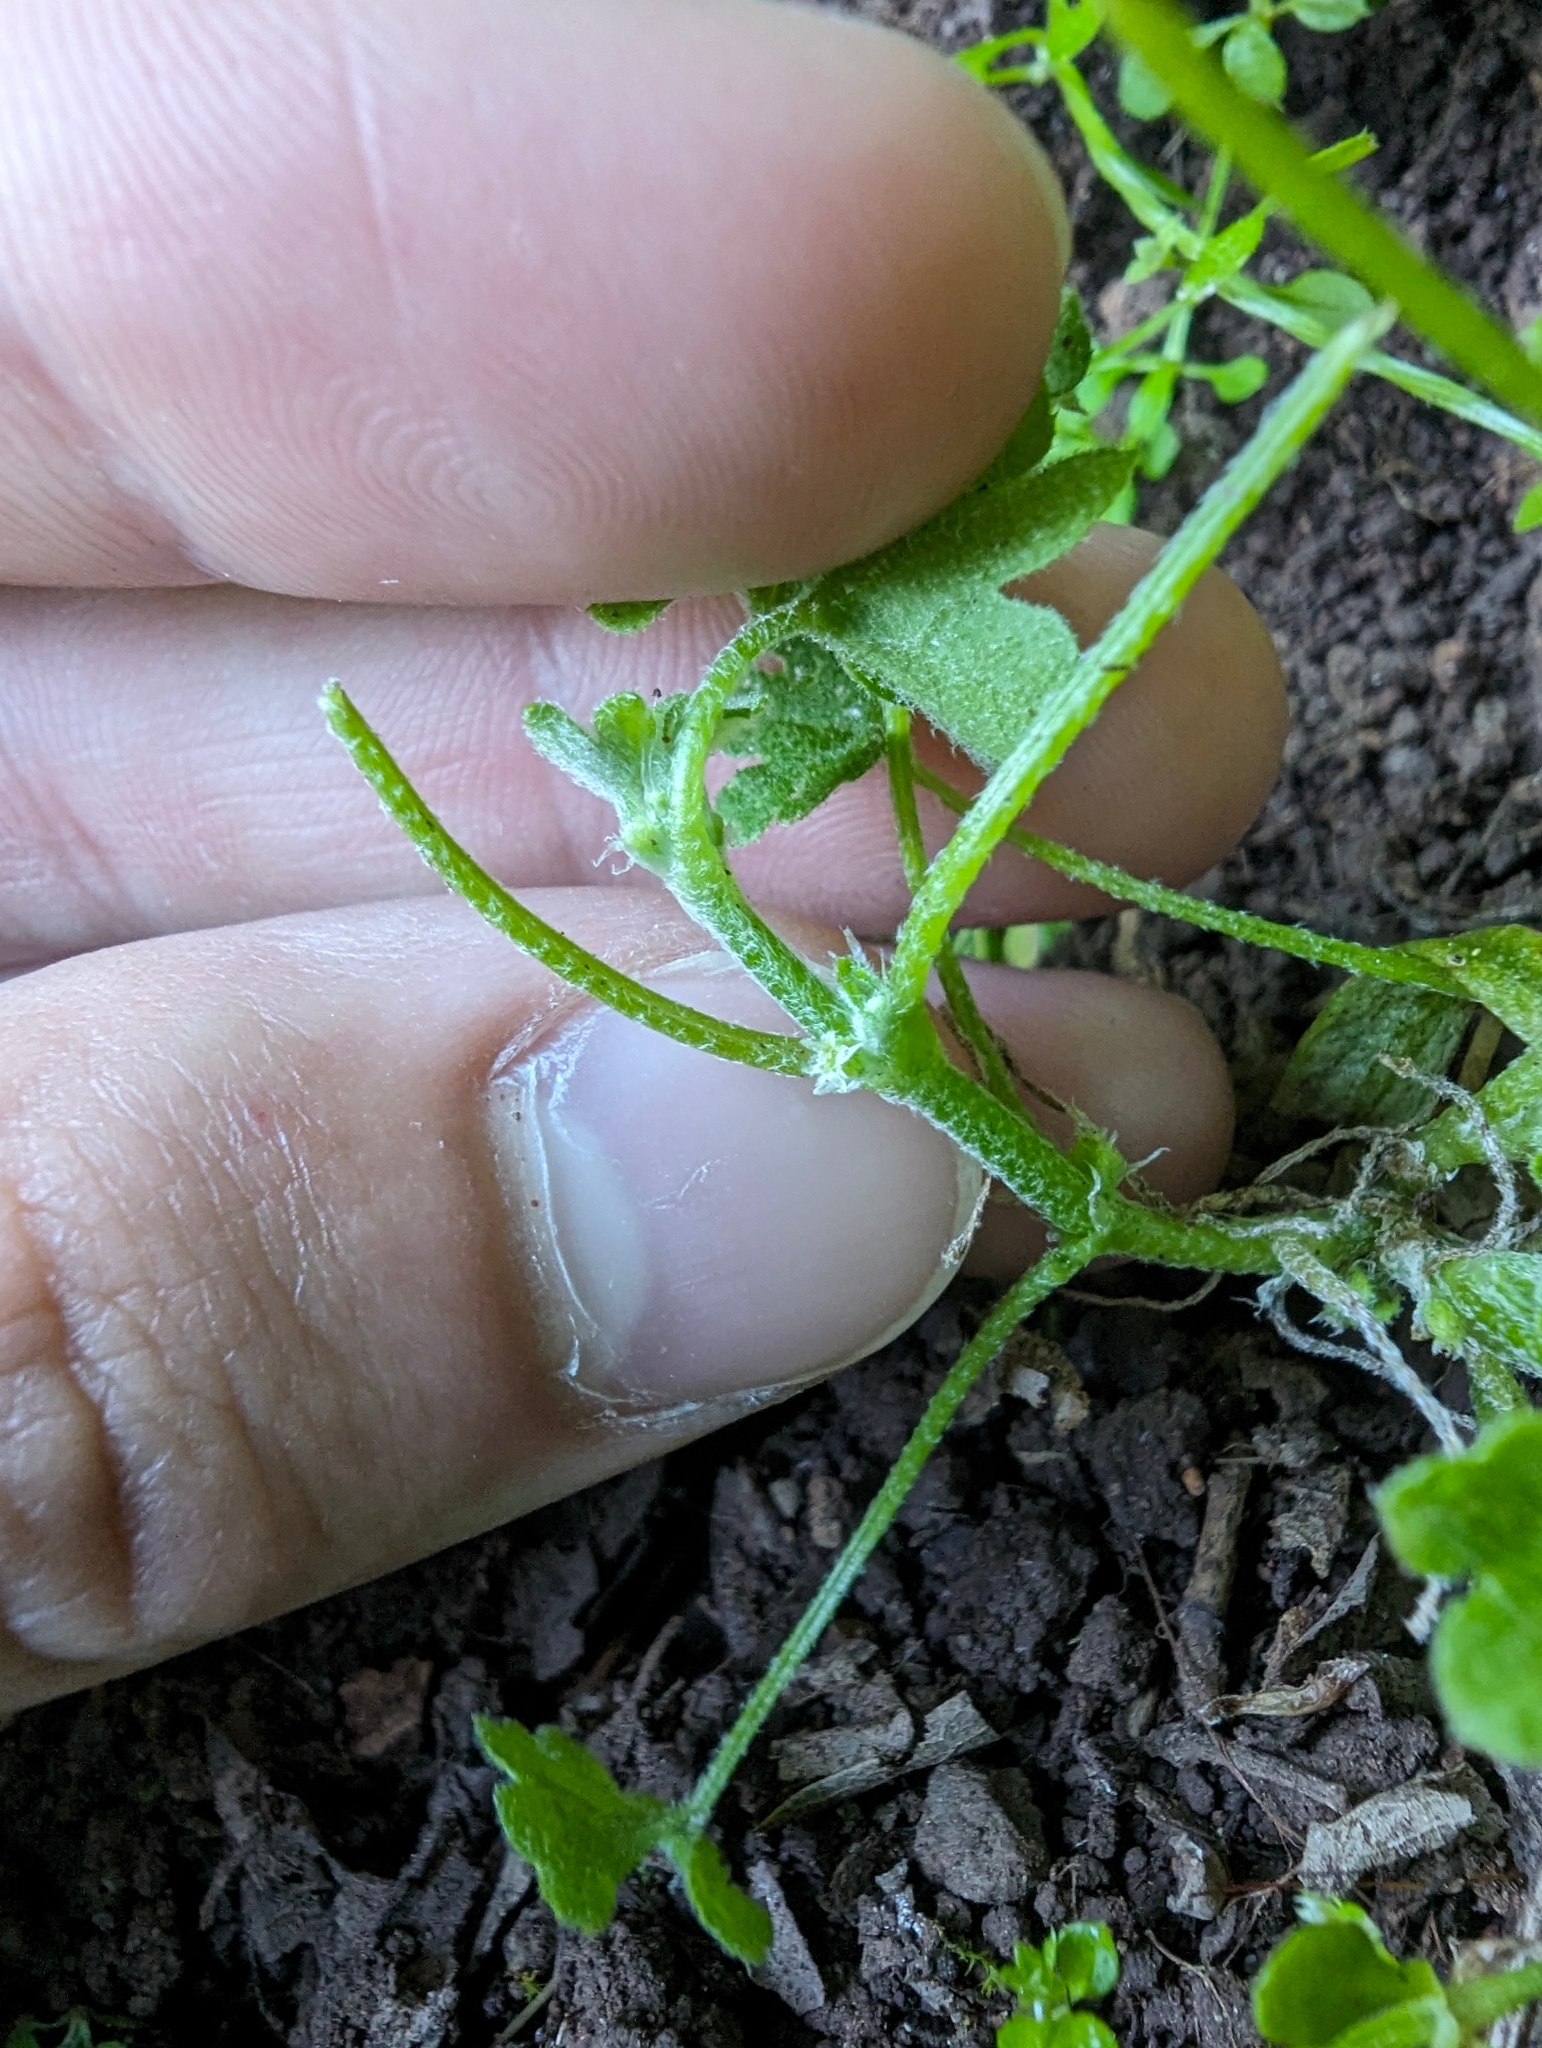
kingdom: Plantae
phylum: Tracheophyta
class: Magnoliopsida
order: Apiales
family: Apiaceae
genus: Bowlesia
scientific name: Bowlesia incana
